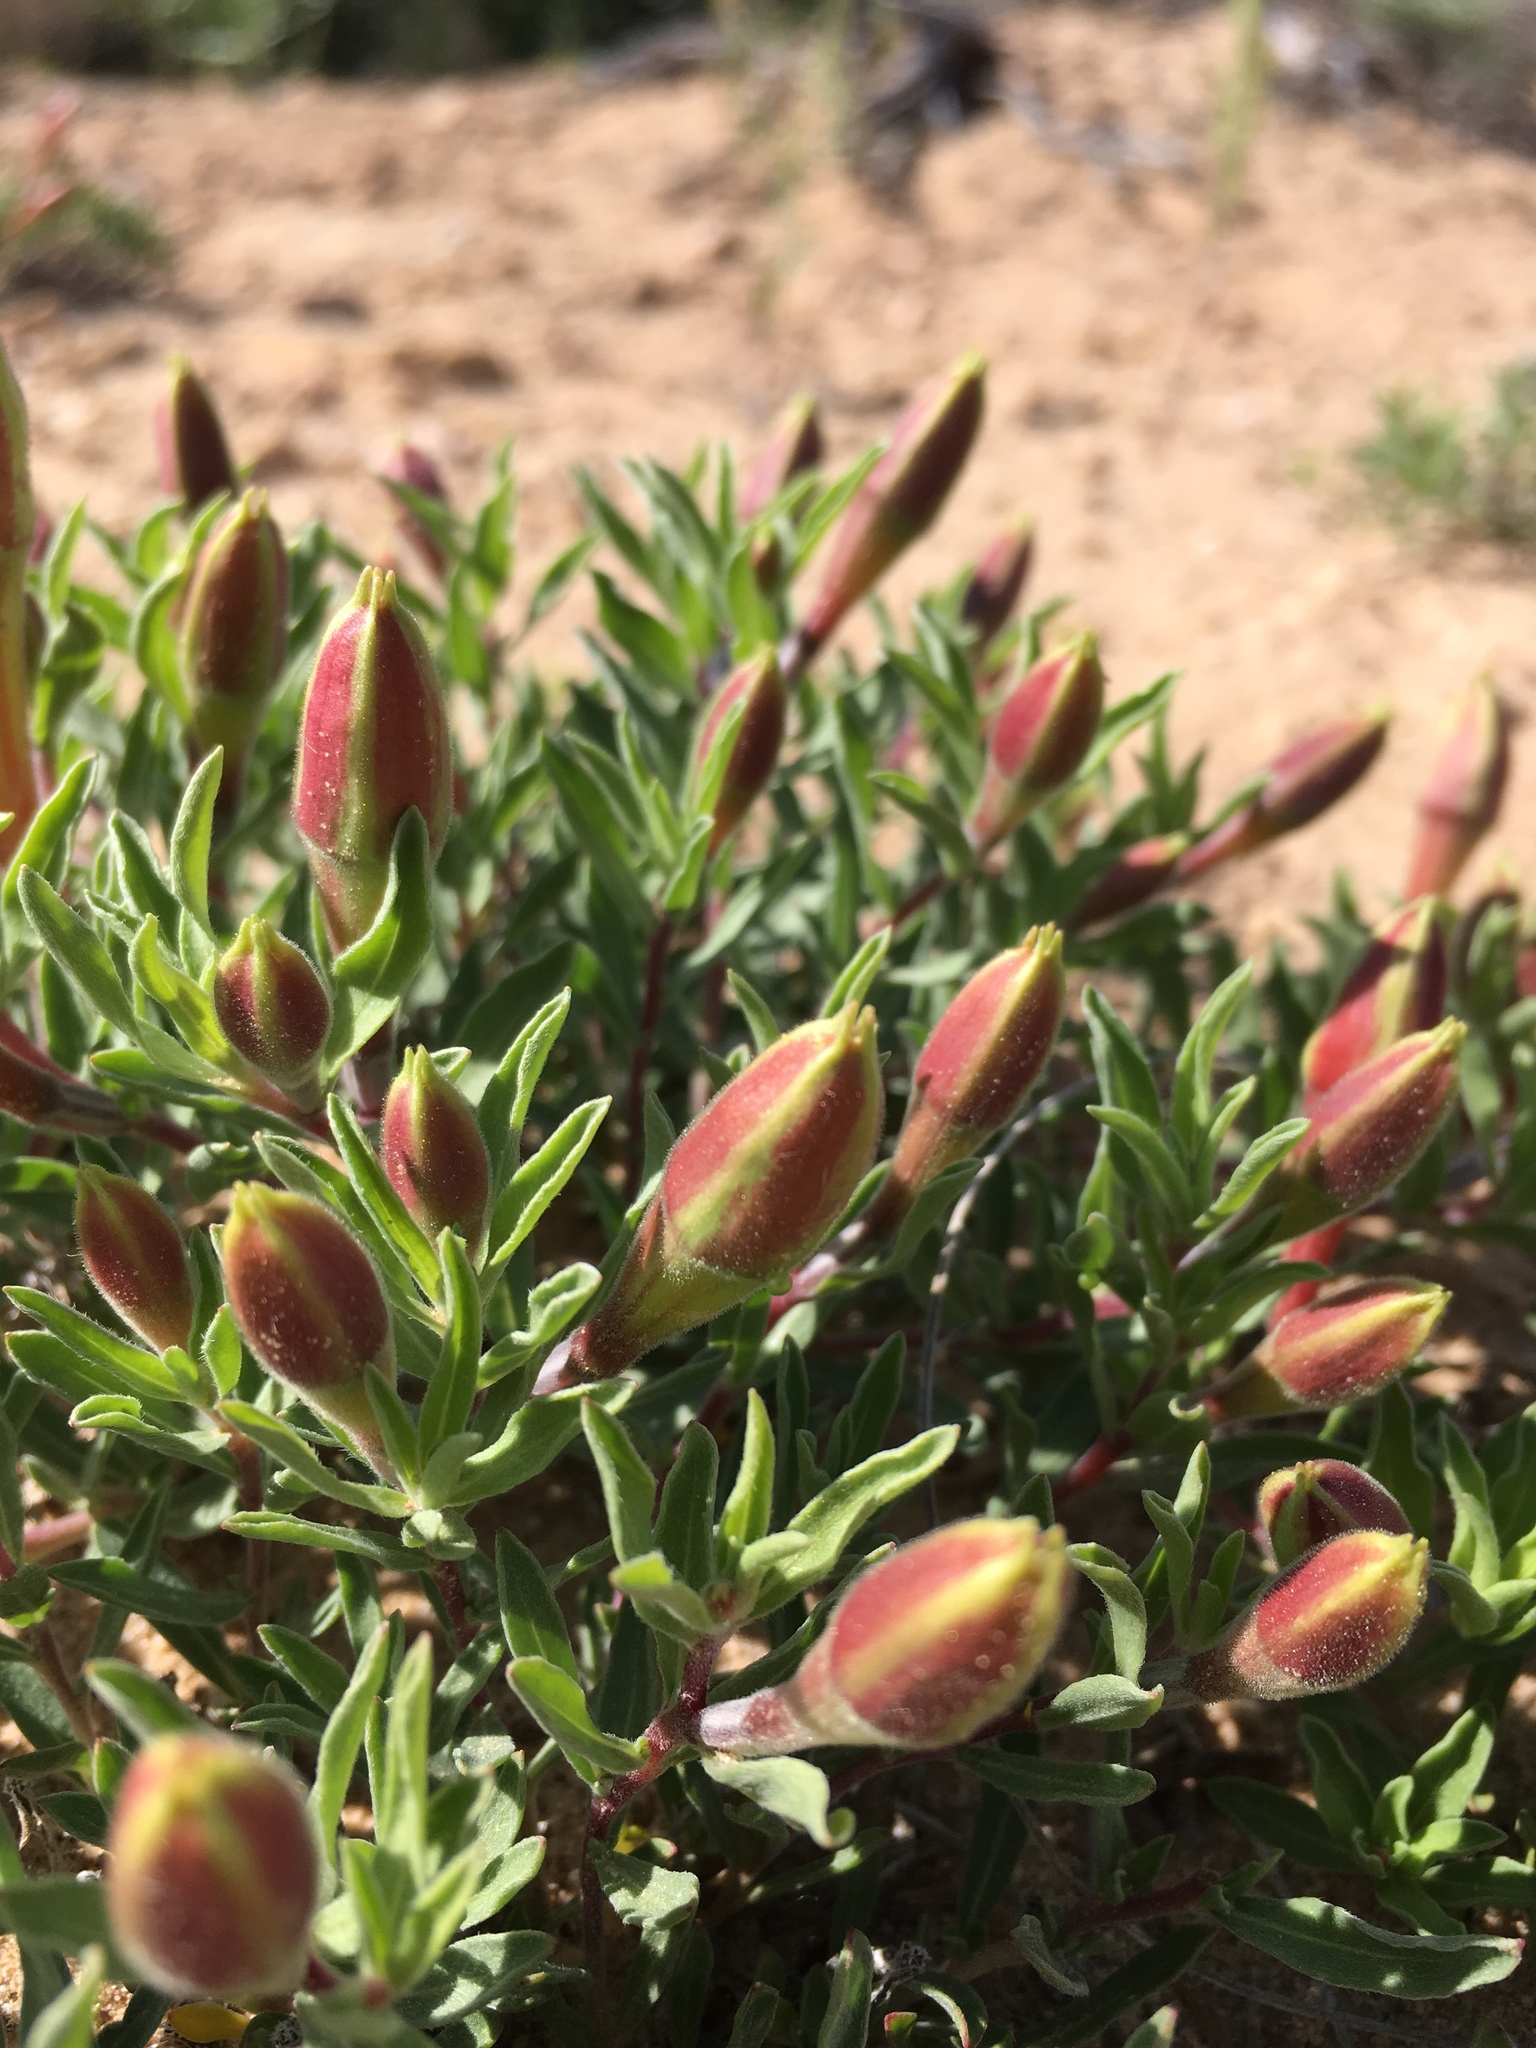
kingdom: Plantae
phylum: Tracheophyta
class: Magnoliopsida
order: Myrtales
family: Onagraceae
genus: Oenothera
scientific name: Oenothera lavandulifolia
